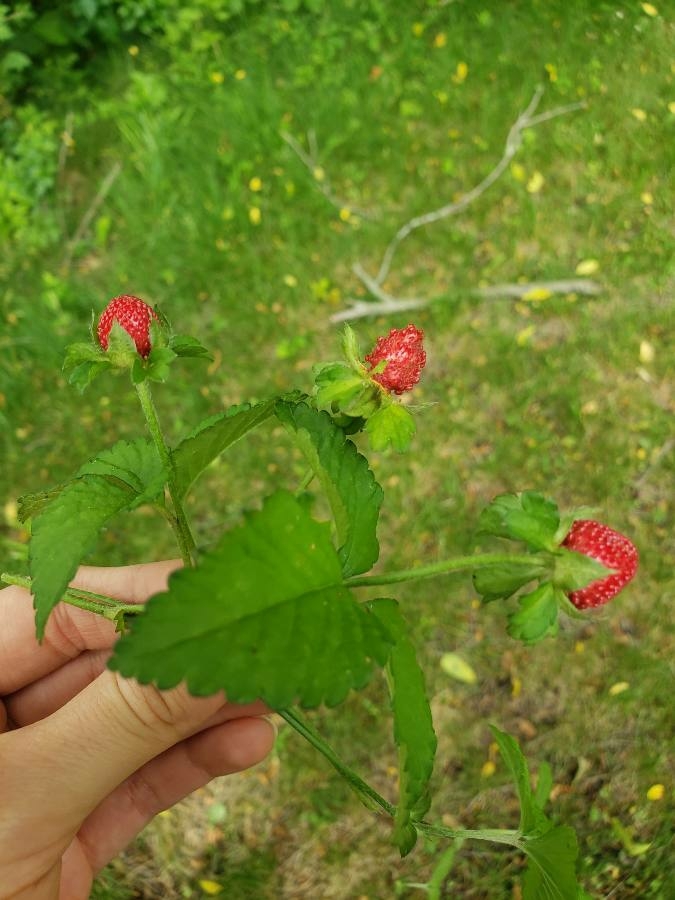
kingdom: Plantae
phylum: Tracheophyta
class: Magnoliopsida
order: Rosales
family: Rosaceae
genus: Potentilla
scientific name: Potentilla indica
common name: Yellow-flowered strawberry
